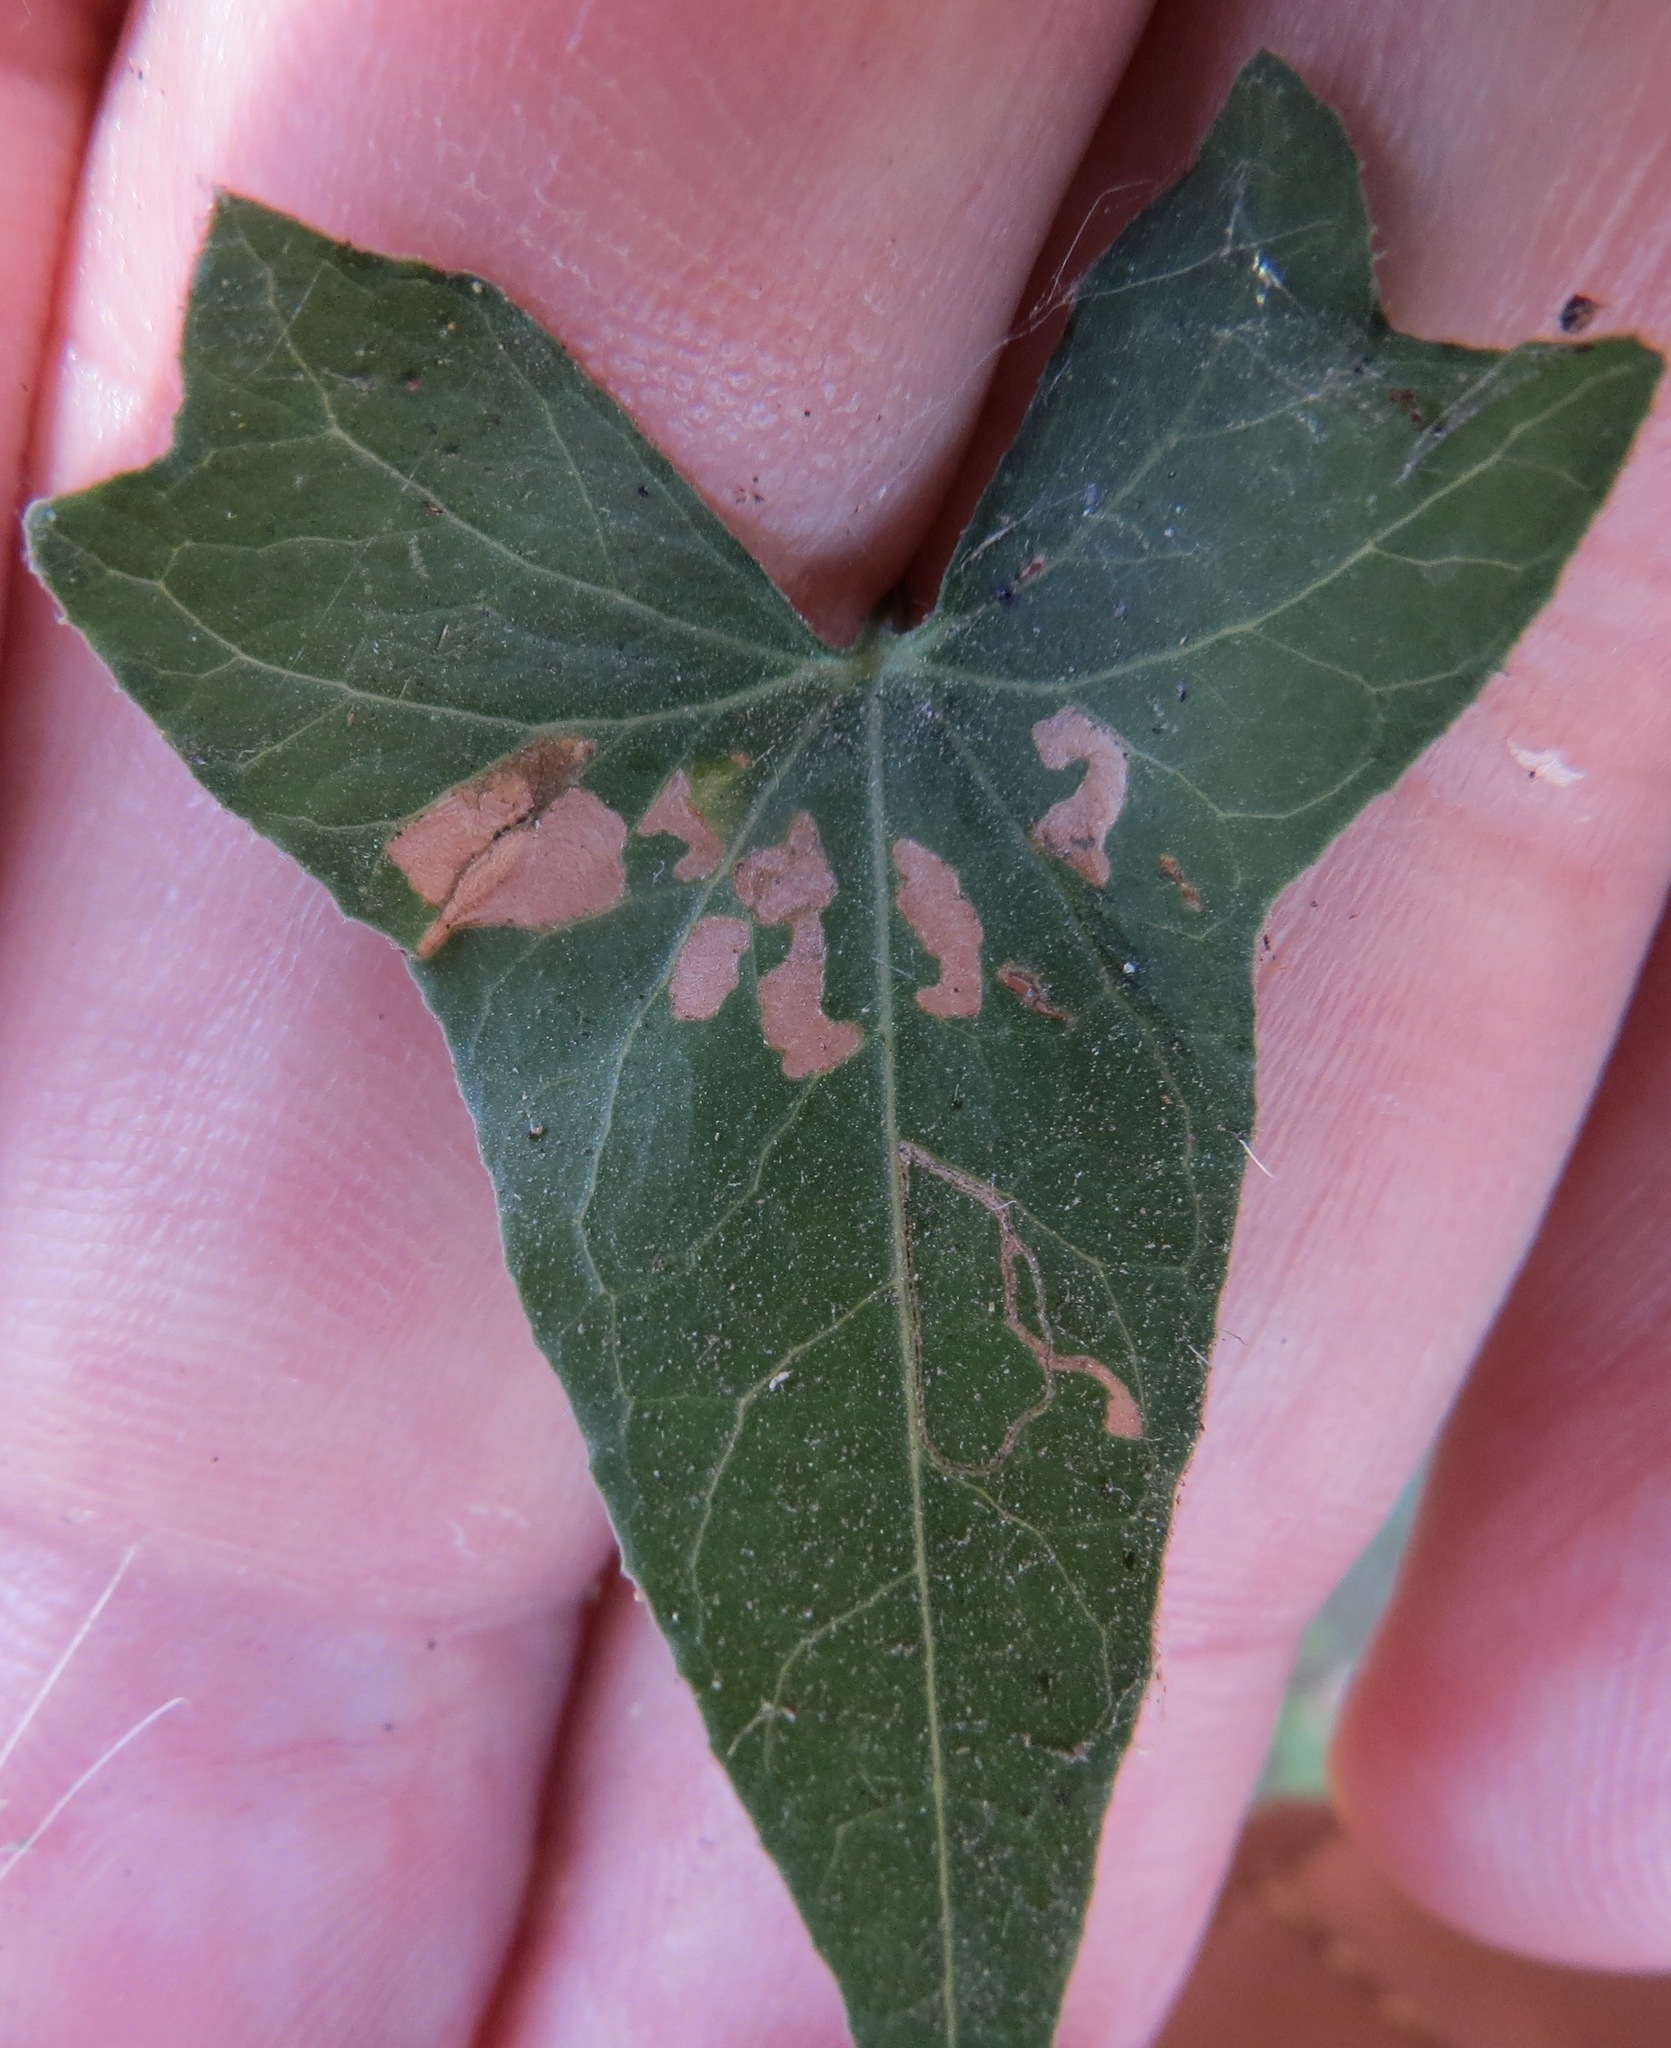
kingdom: Animalia
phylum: Arthropoda
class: Insecta
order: Lepidoptera
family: Bedelliidae
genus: Bedellia
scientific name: Bedellia somnulentella
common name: Morning-glory leafminer moth
